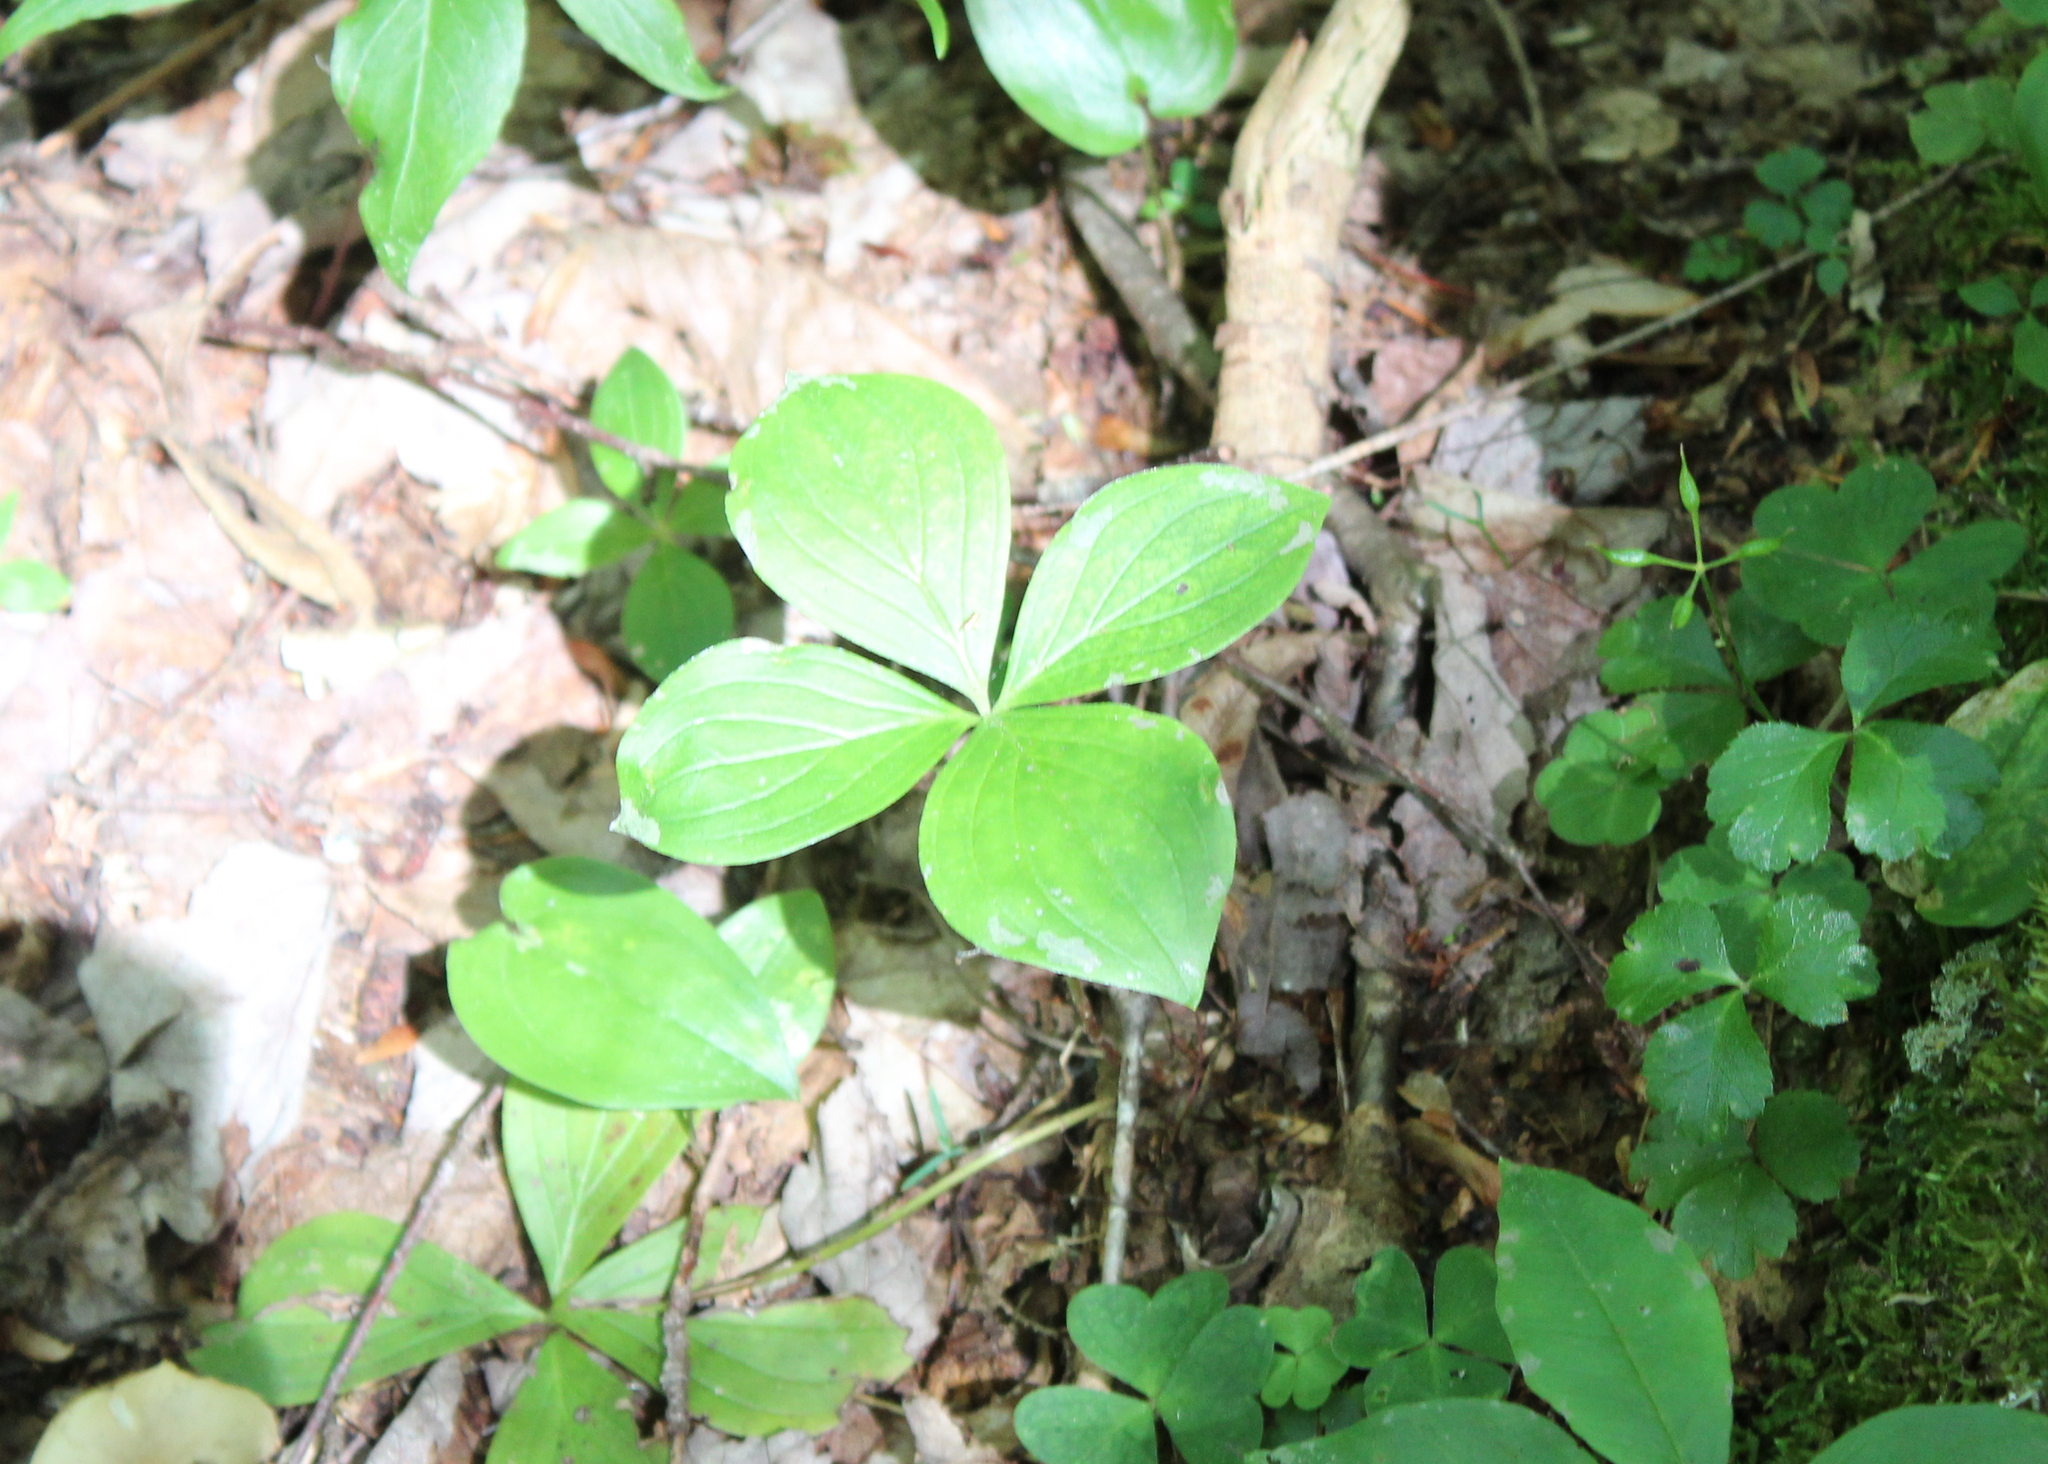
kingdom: Plantae
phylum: Tracheophyta
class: Magnoliopsida
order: Cornales
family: Cornaceae
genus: Cornus
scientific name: Cornus canadensis
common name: Creeping dogwood
